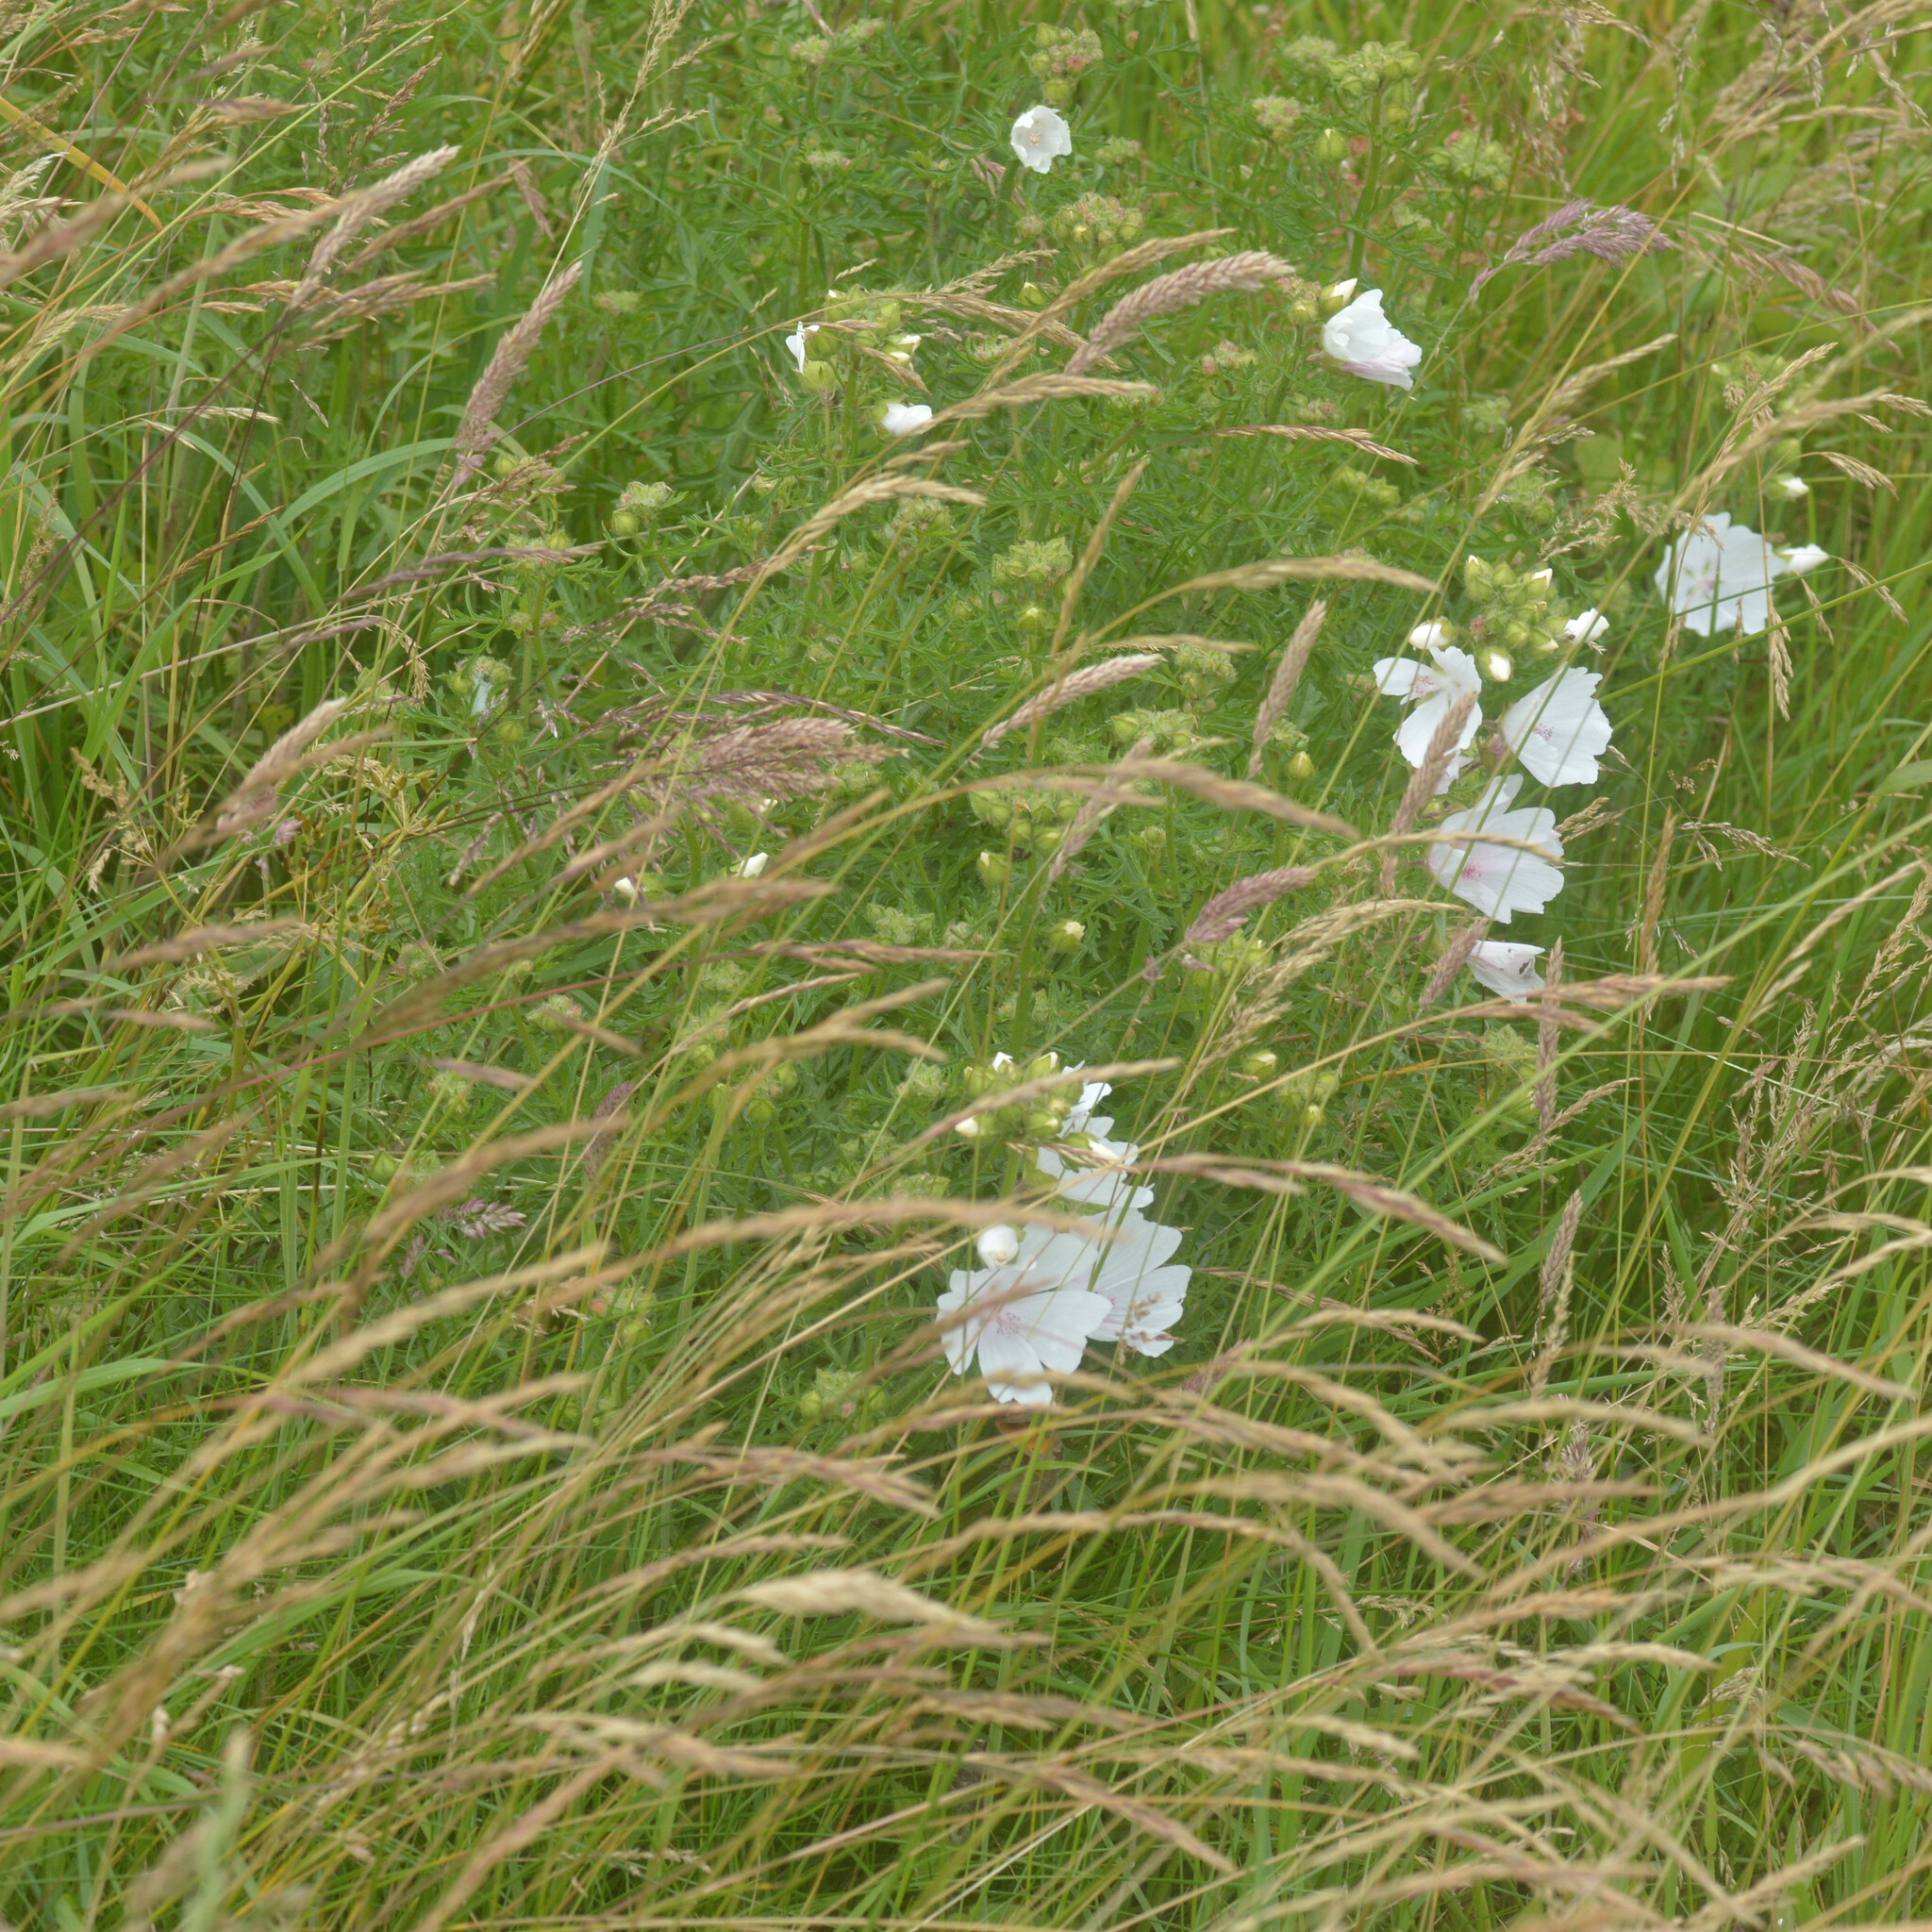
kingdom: Plantae
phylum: Tracheophyta
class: Magnoliopsida
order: Malvales
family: Malvaceae
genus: Malva
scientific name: Malva moschata
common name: Musk mallow
